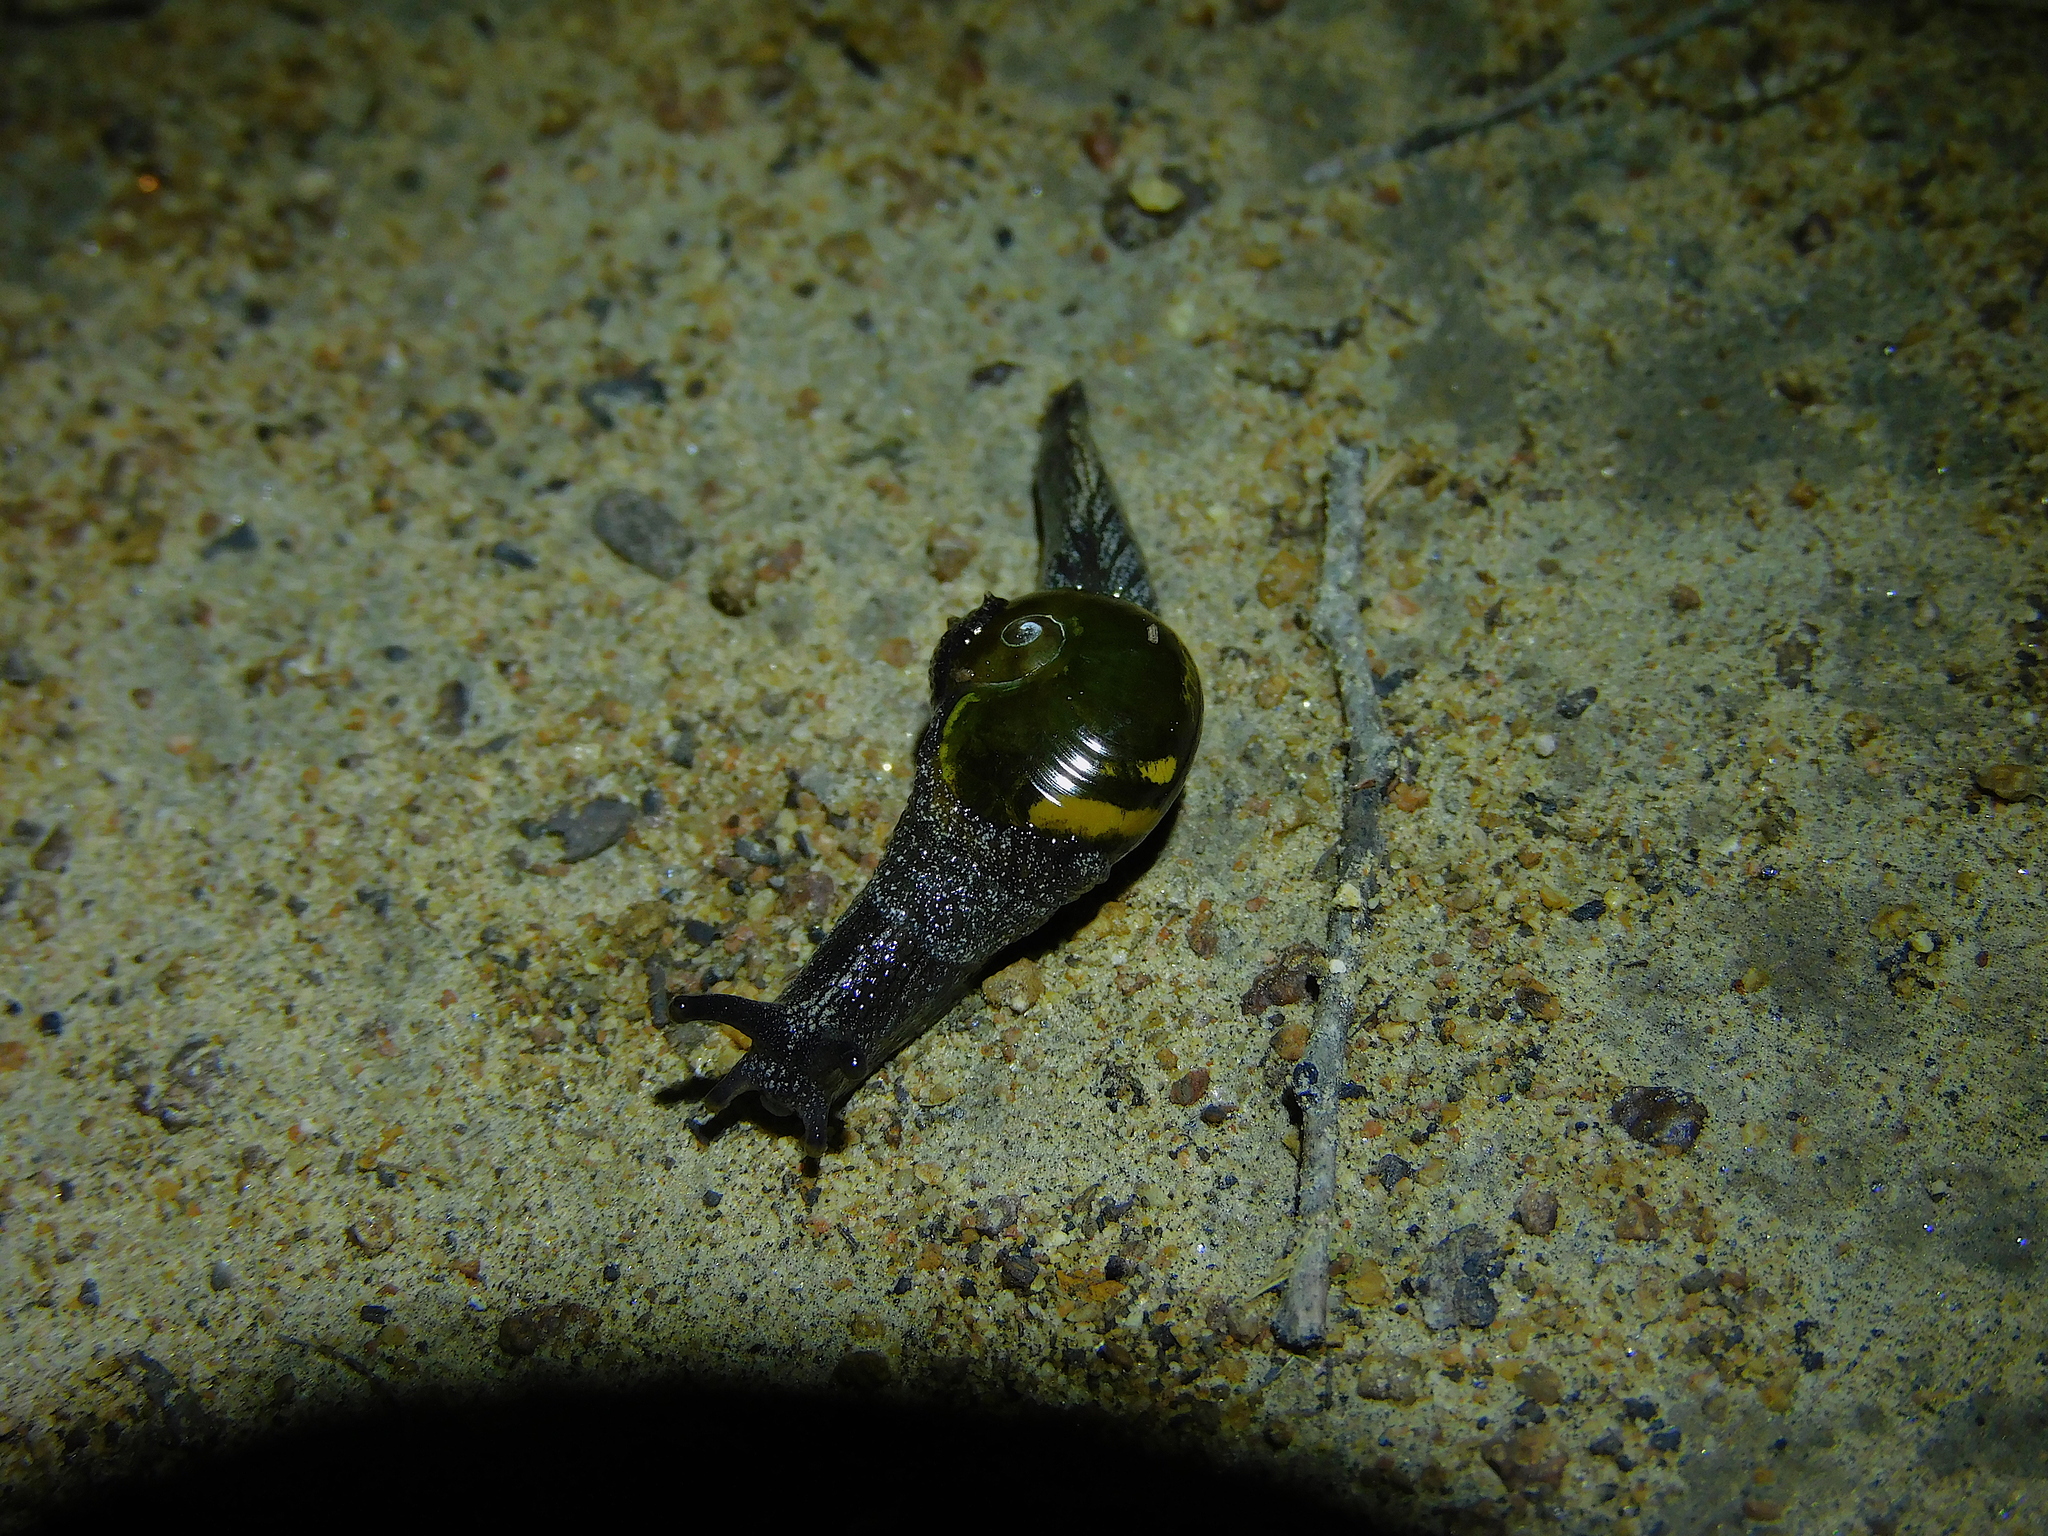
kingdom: Animalia
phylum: Mollusca
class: Gastropoda
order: Stylommatophora
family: Helicarionidae
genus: Helicarion
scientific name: Helicarion cuvieri
